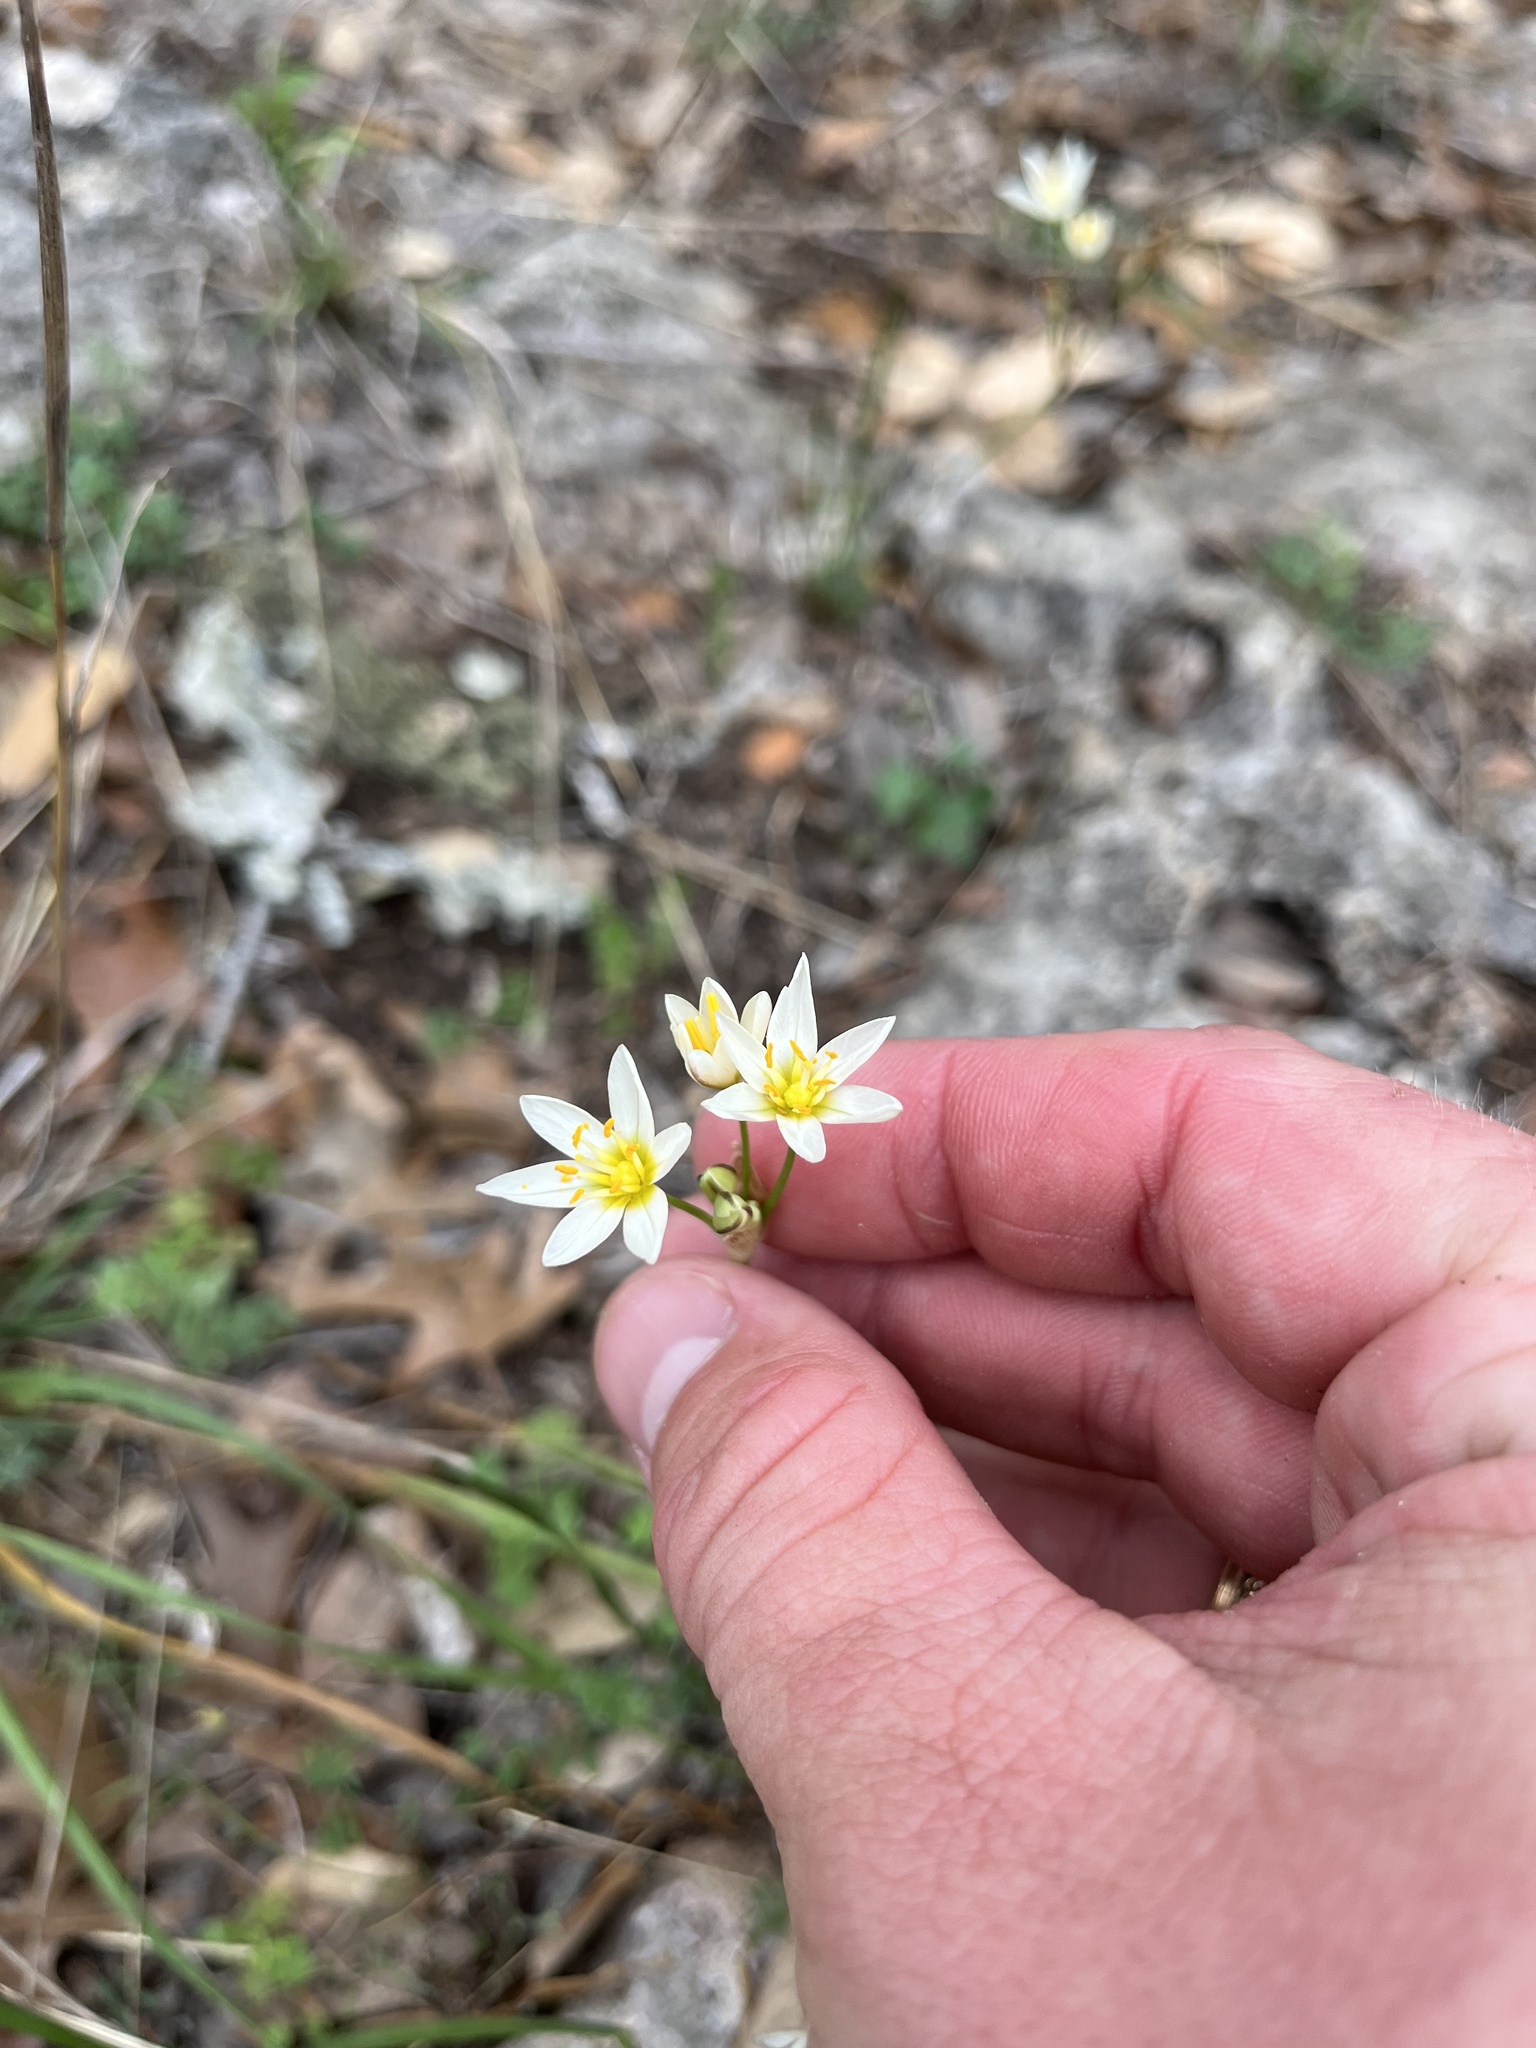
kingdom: Plantae
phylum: Tracheophyta
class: Liliopsida
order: Asparagales
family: Amaryllidaceae
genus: Nothoscordum
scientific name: Nothoscordum bivalve
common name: Crow-poison
